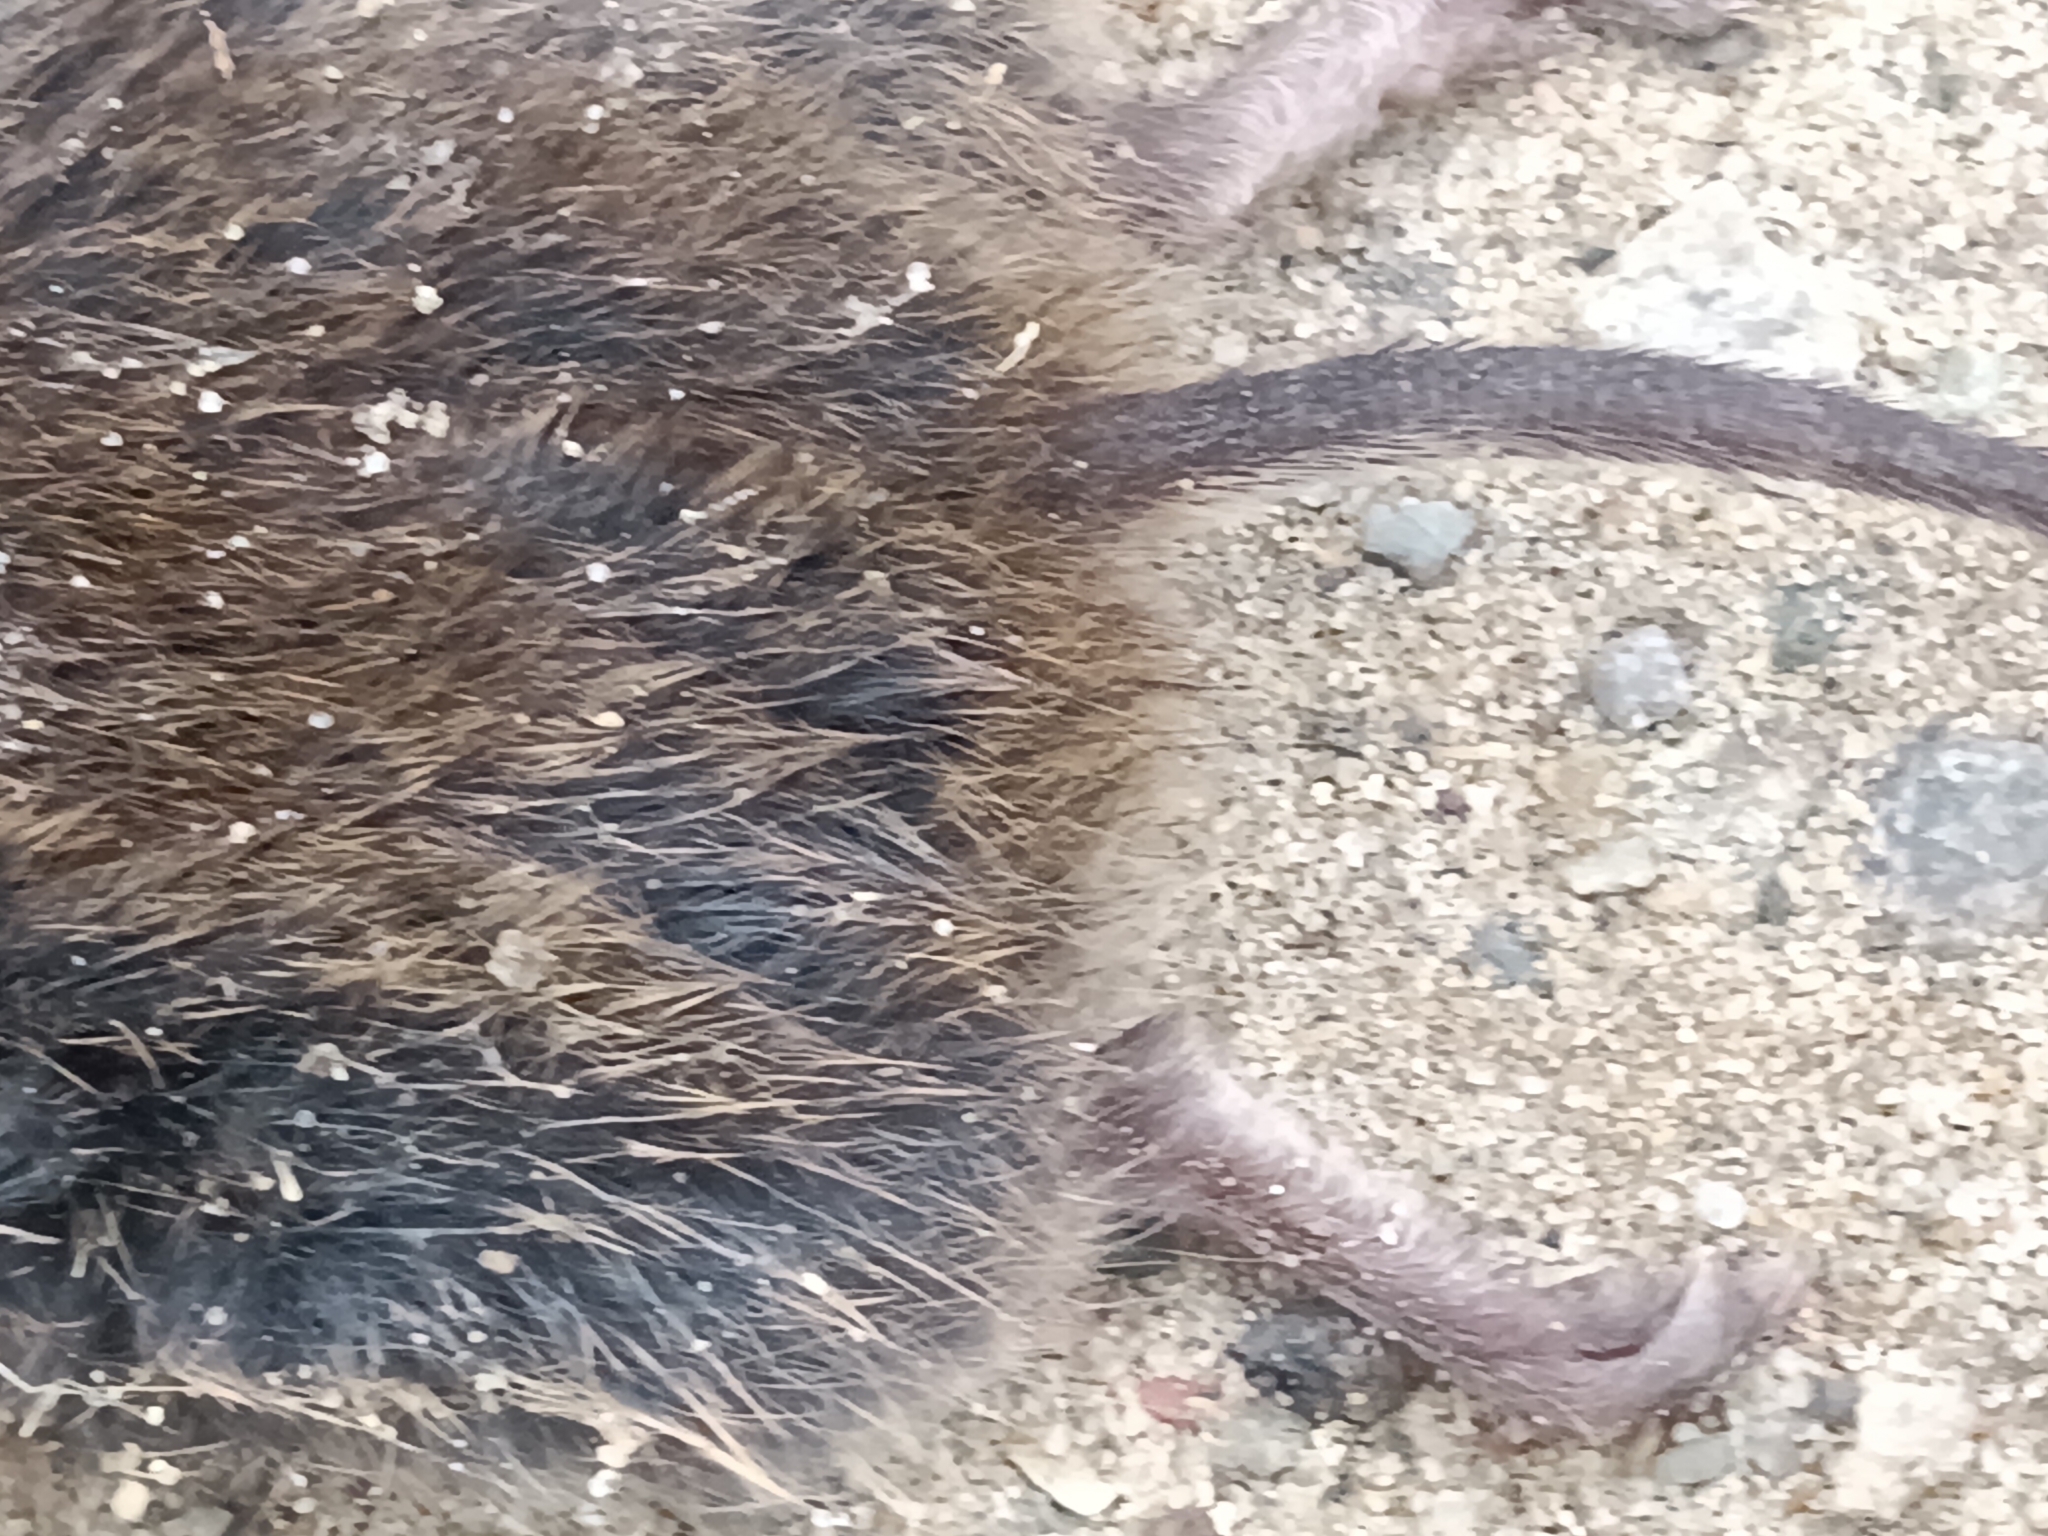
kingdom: Animalia
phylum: Chordata
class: Mammalia
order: Rodentia
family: Muridae
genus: Mus
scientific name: Mus musculus
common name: House mouse
